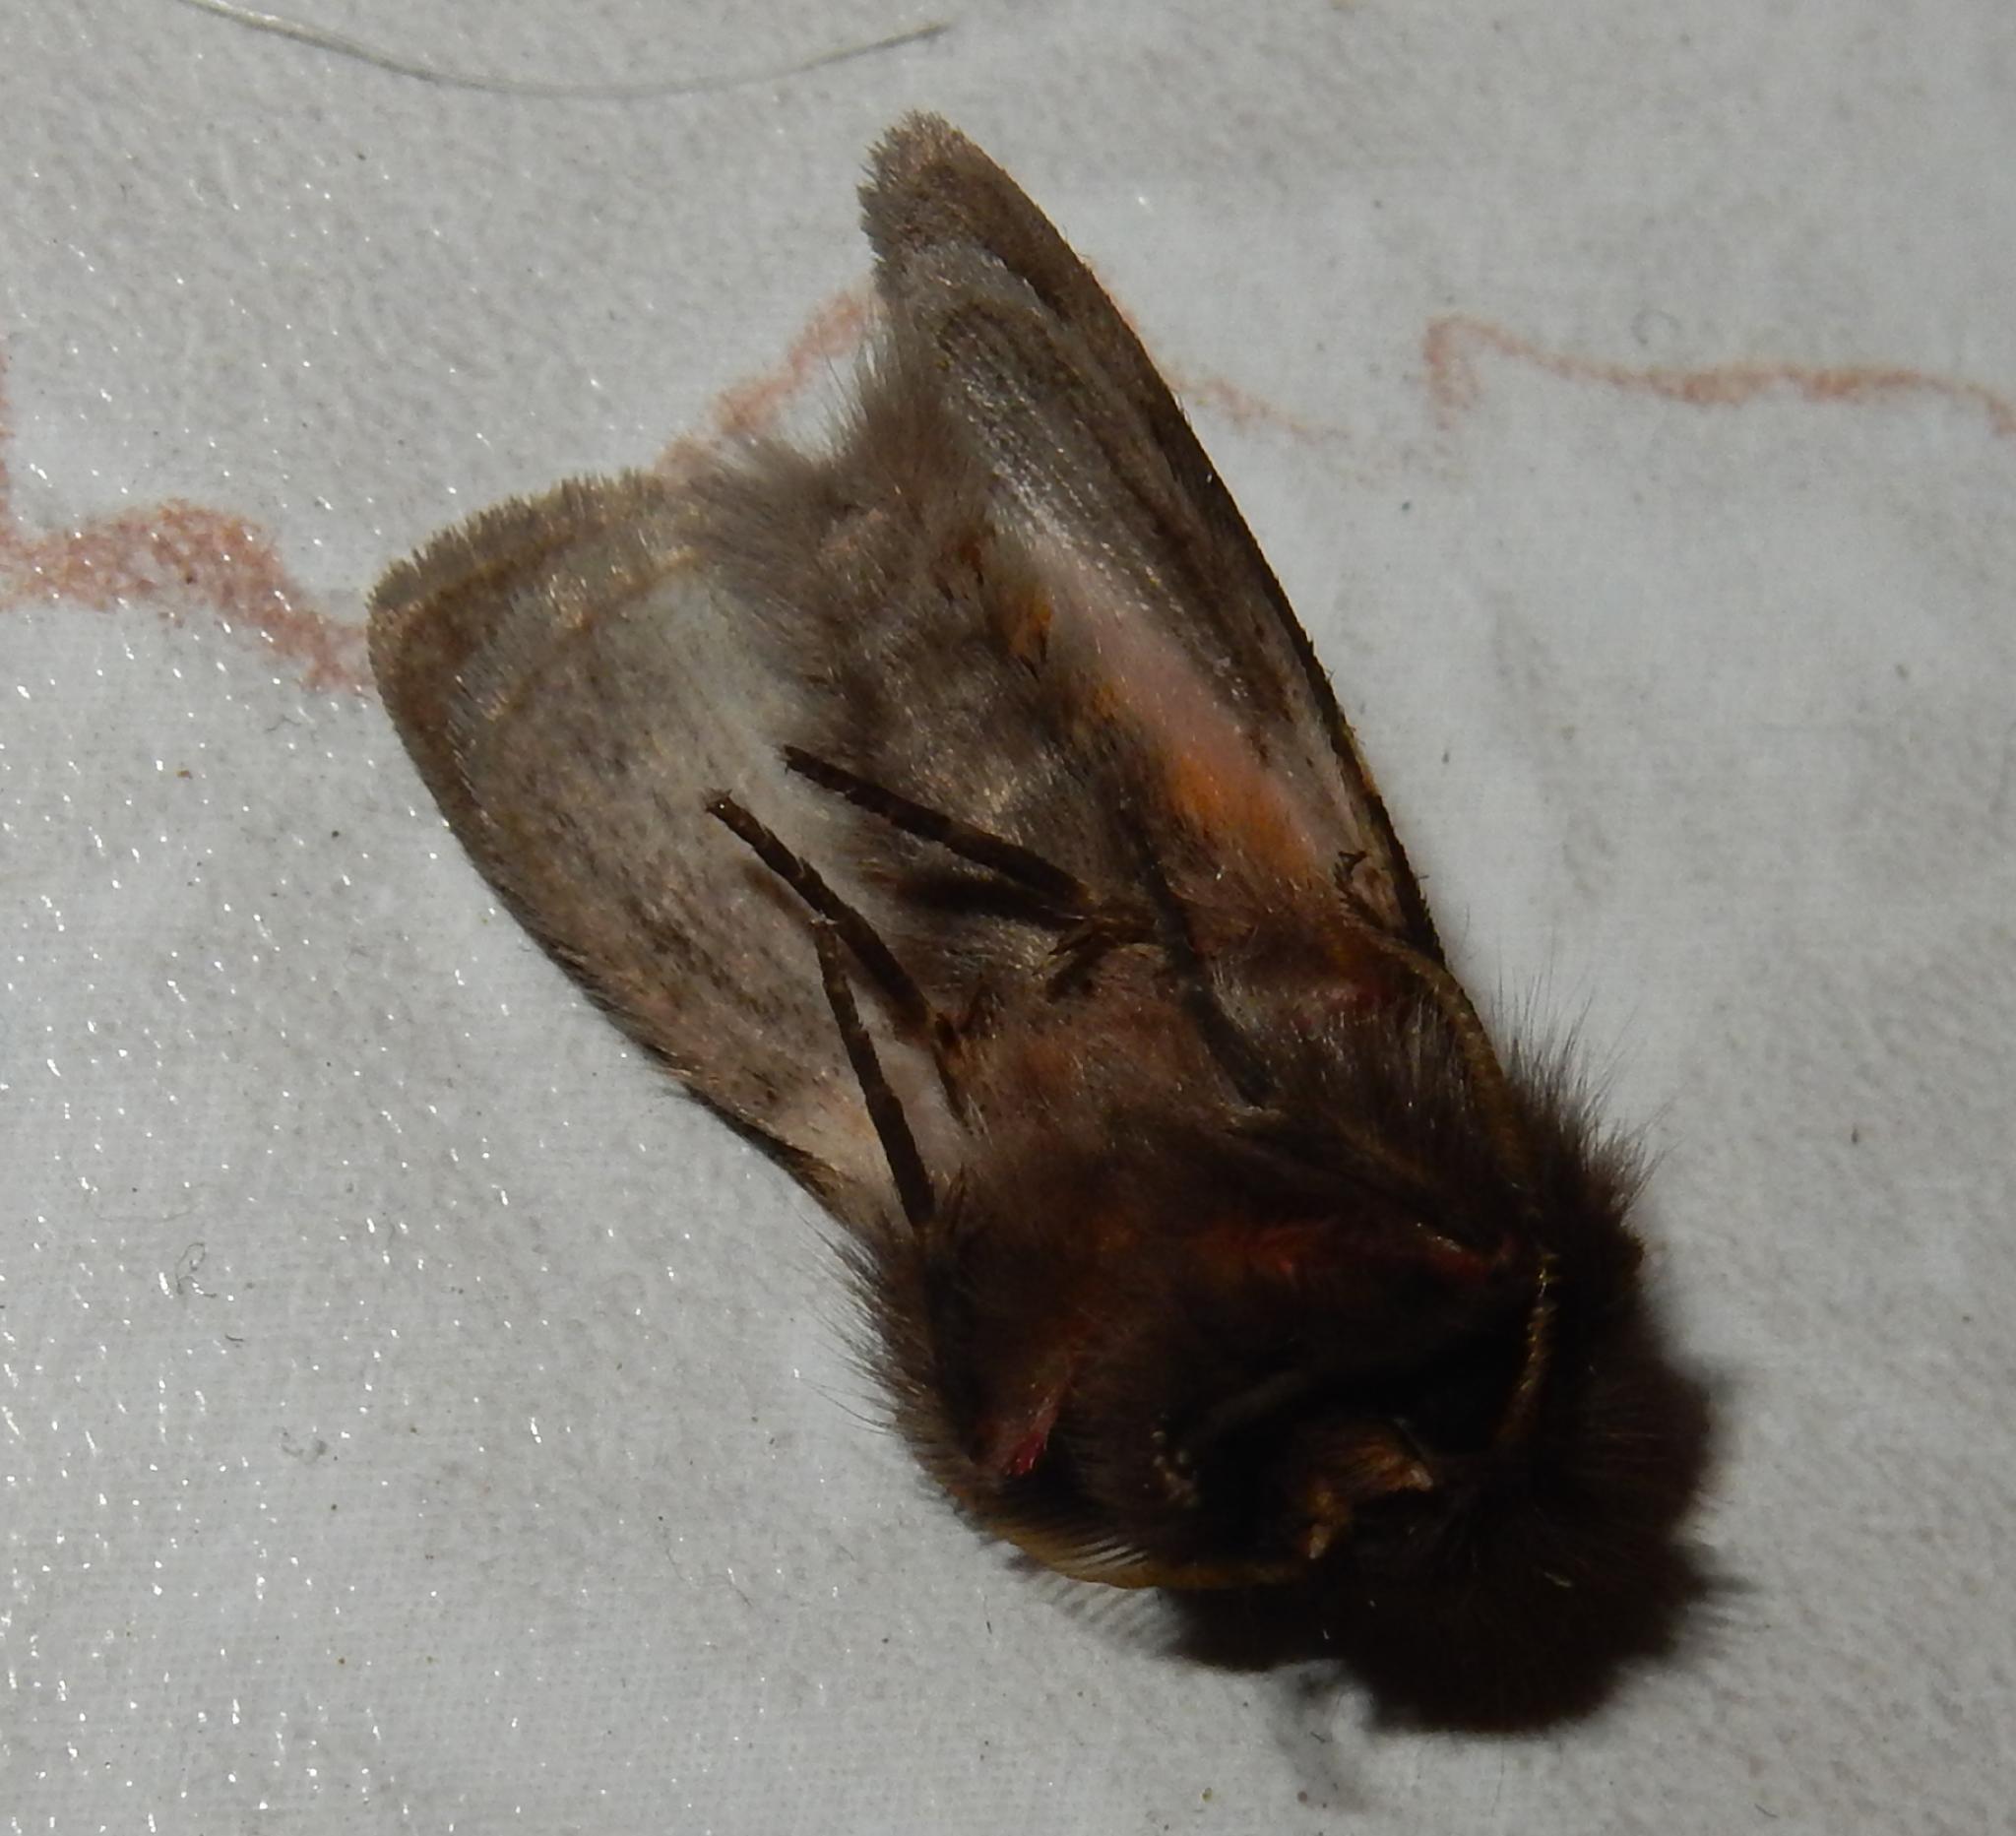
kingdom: Animalia
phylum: Arthropoda
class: Insecta
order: Lepidoptera
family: Erebidae
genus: Lymantria
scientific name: Lymantria Morasa modesta
